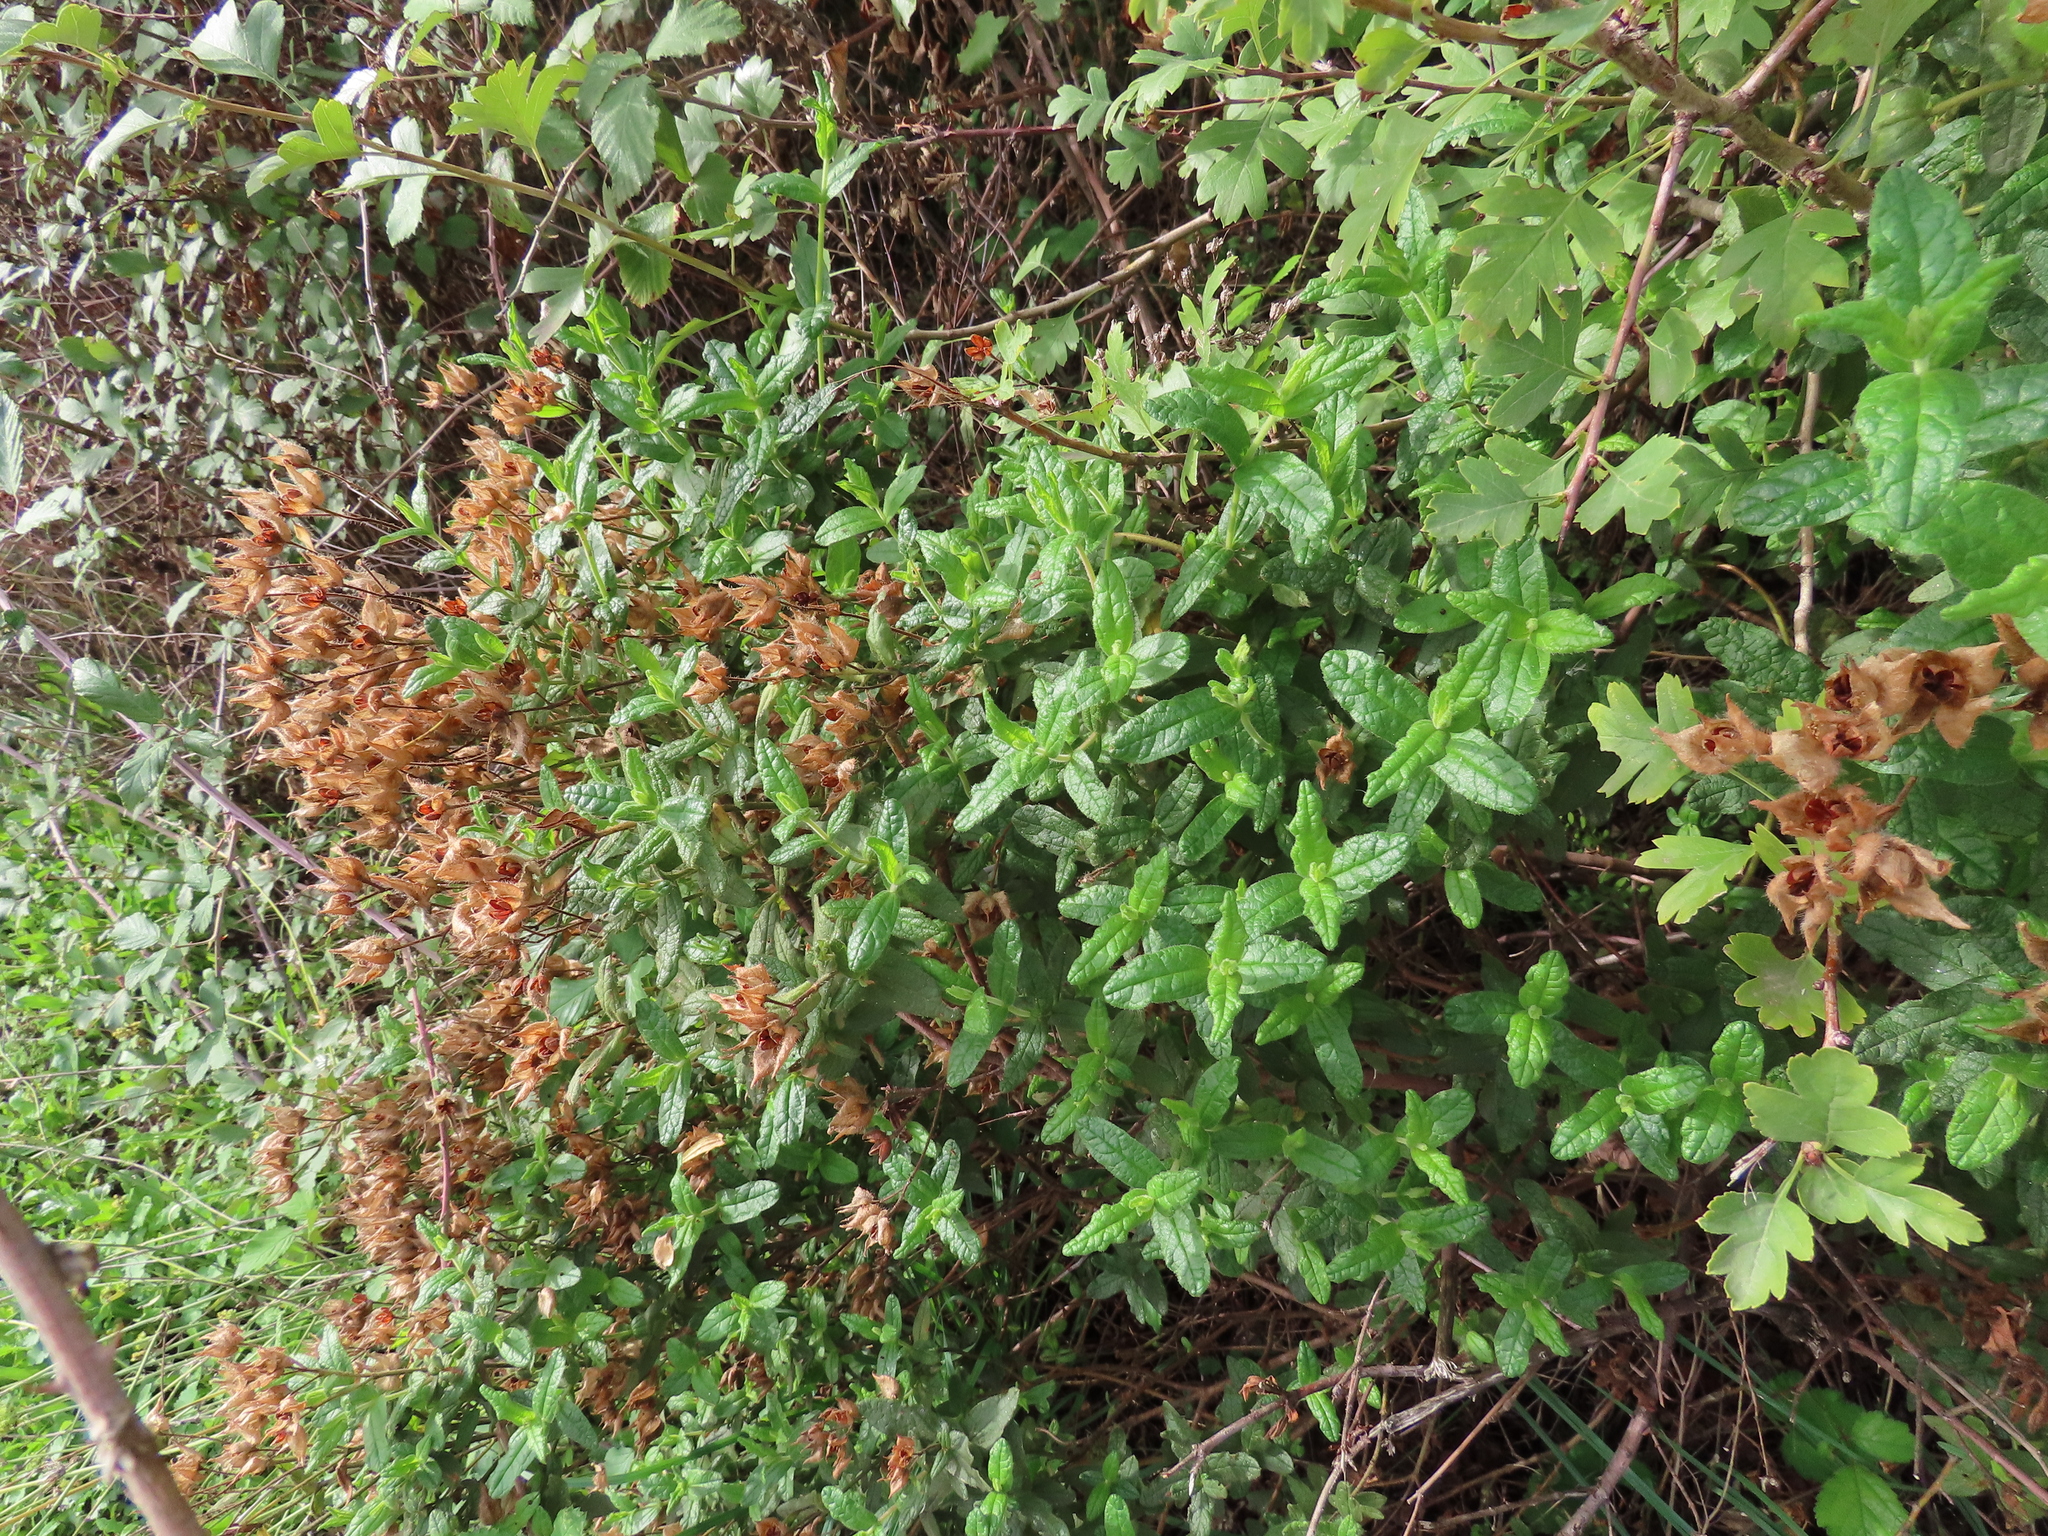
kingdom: Plantae
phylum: Tracheophyta
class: Magnoliopsida
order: Malvales
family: Cistaceae
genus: Cistus
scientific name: Cistus inflatus
